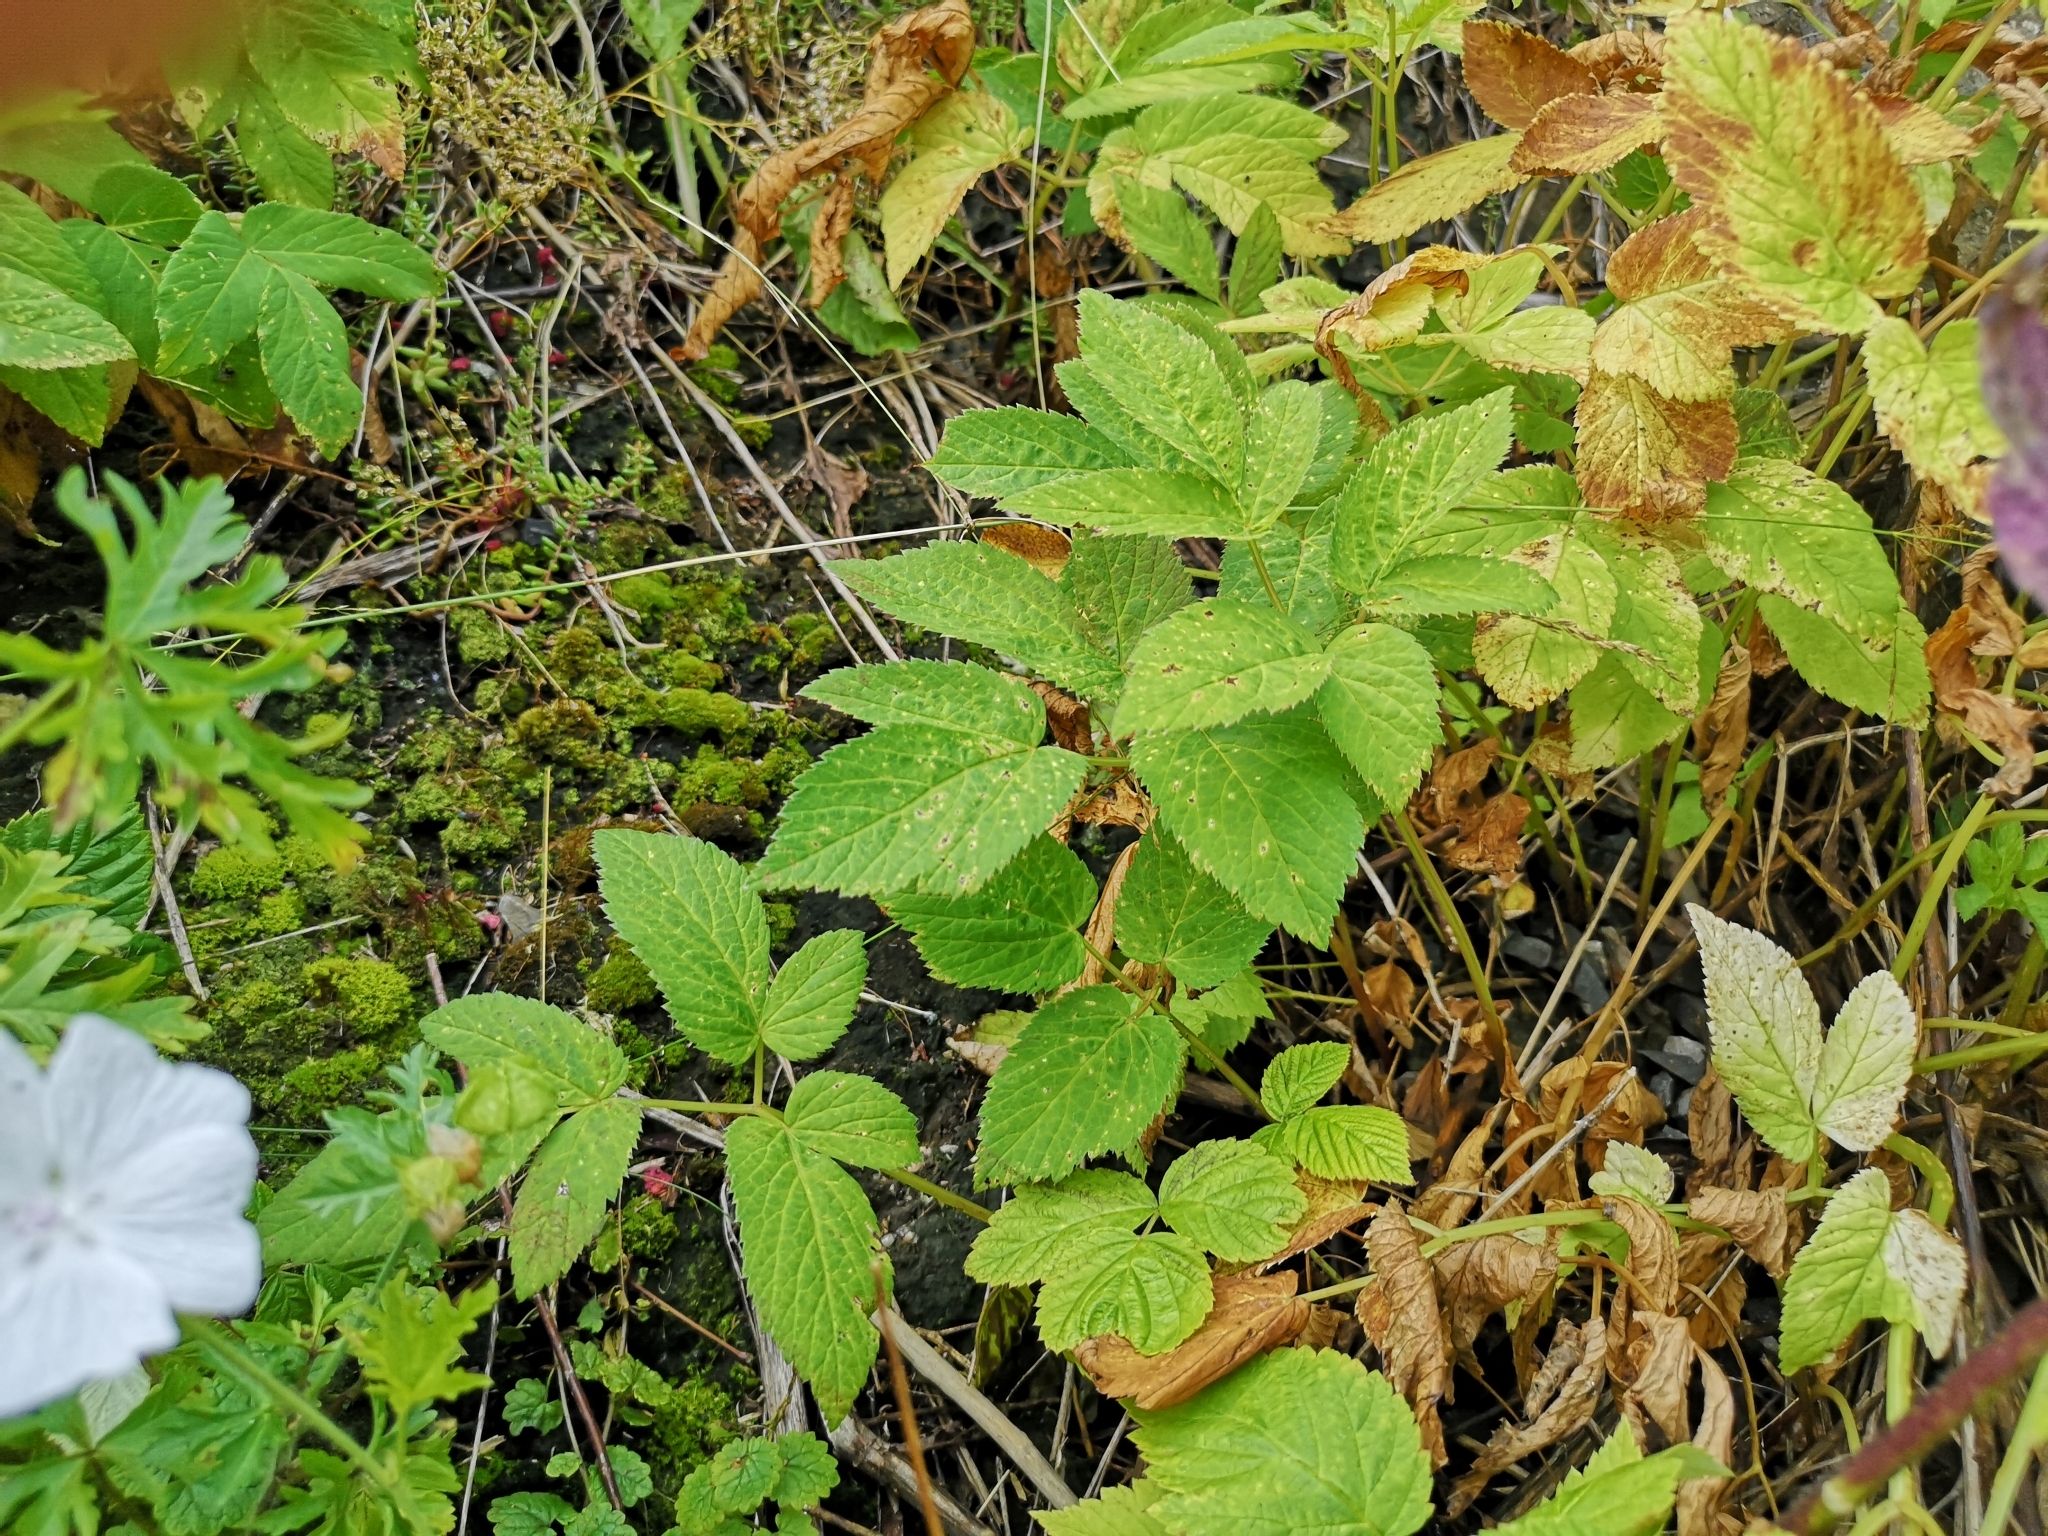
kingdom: Plantae
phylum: Tracheophyta
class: Magnoliopsida
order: Apiales
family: Apiaceae
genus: Aegopodium
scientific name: Aegopodium podagraria
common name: Ground-elder
